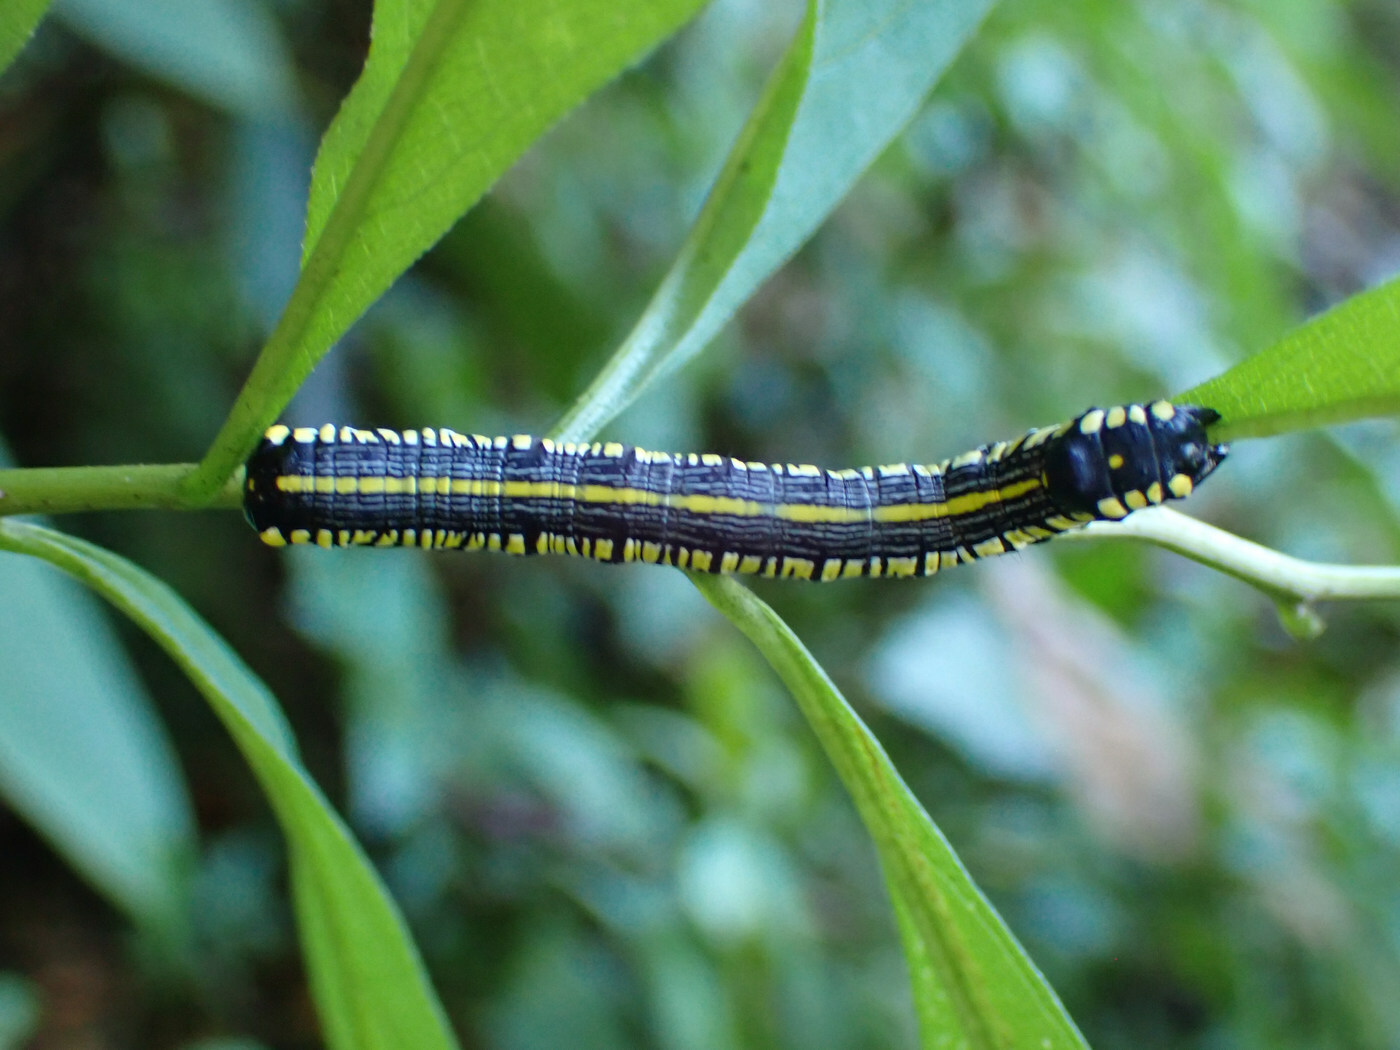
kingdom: Animalia
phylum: Arthropoda
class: Insecta
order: Lepidoptera
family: Noctuidae
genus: Cucullia
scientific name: Cucullia convexipennis
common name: Brown-hooded owlet
